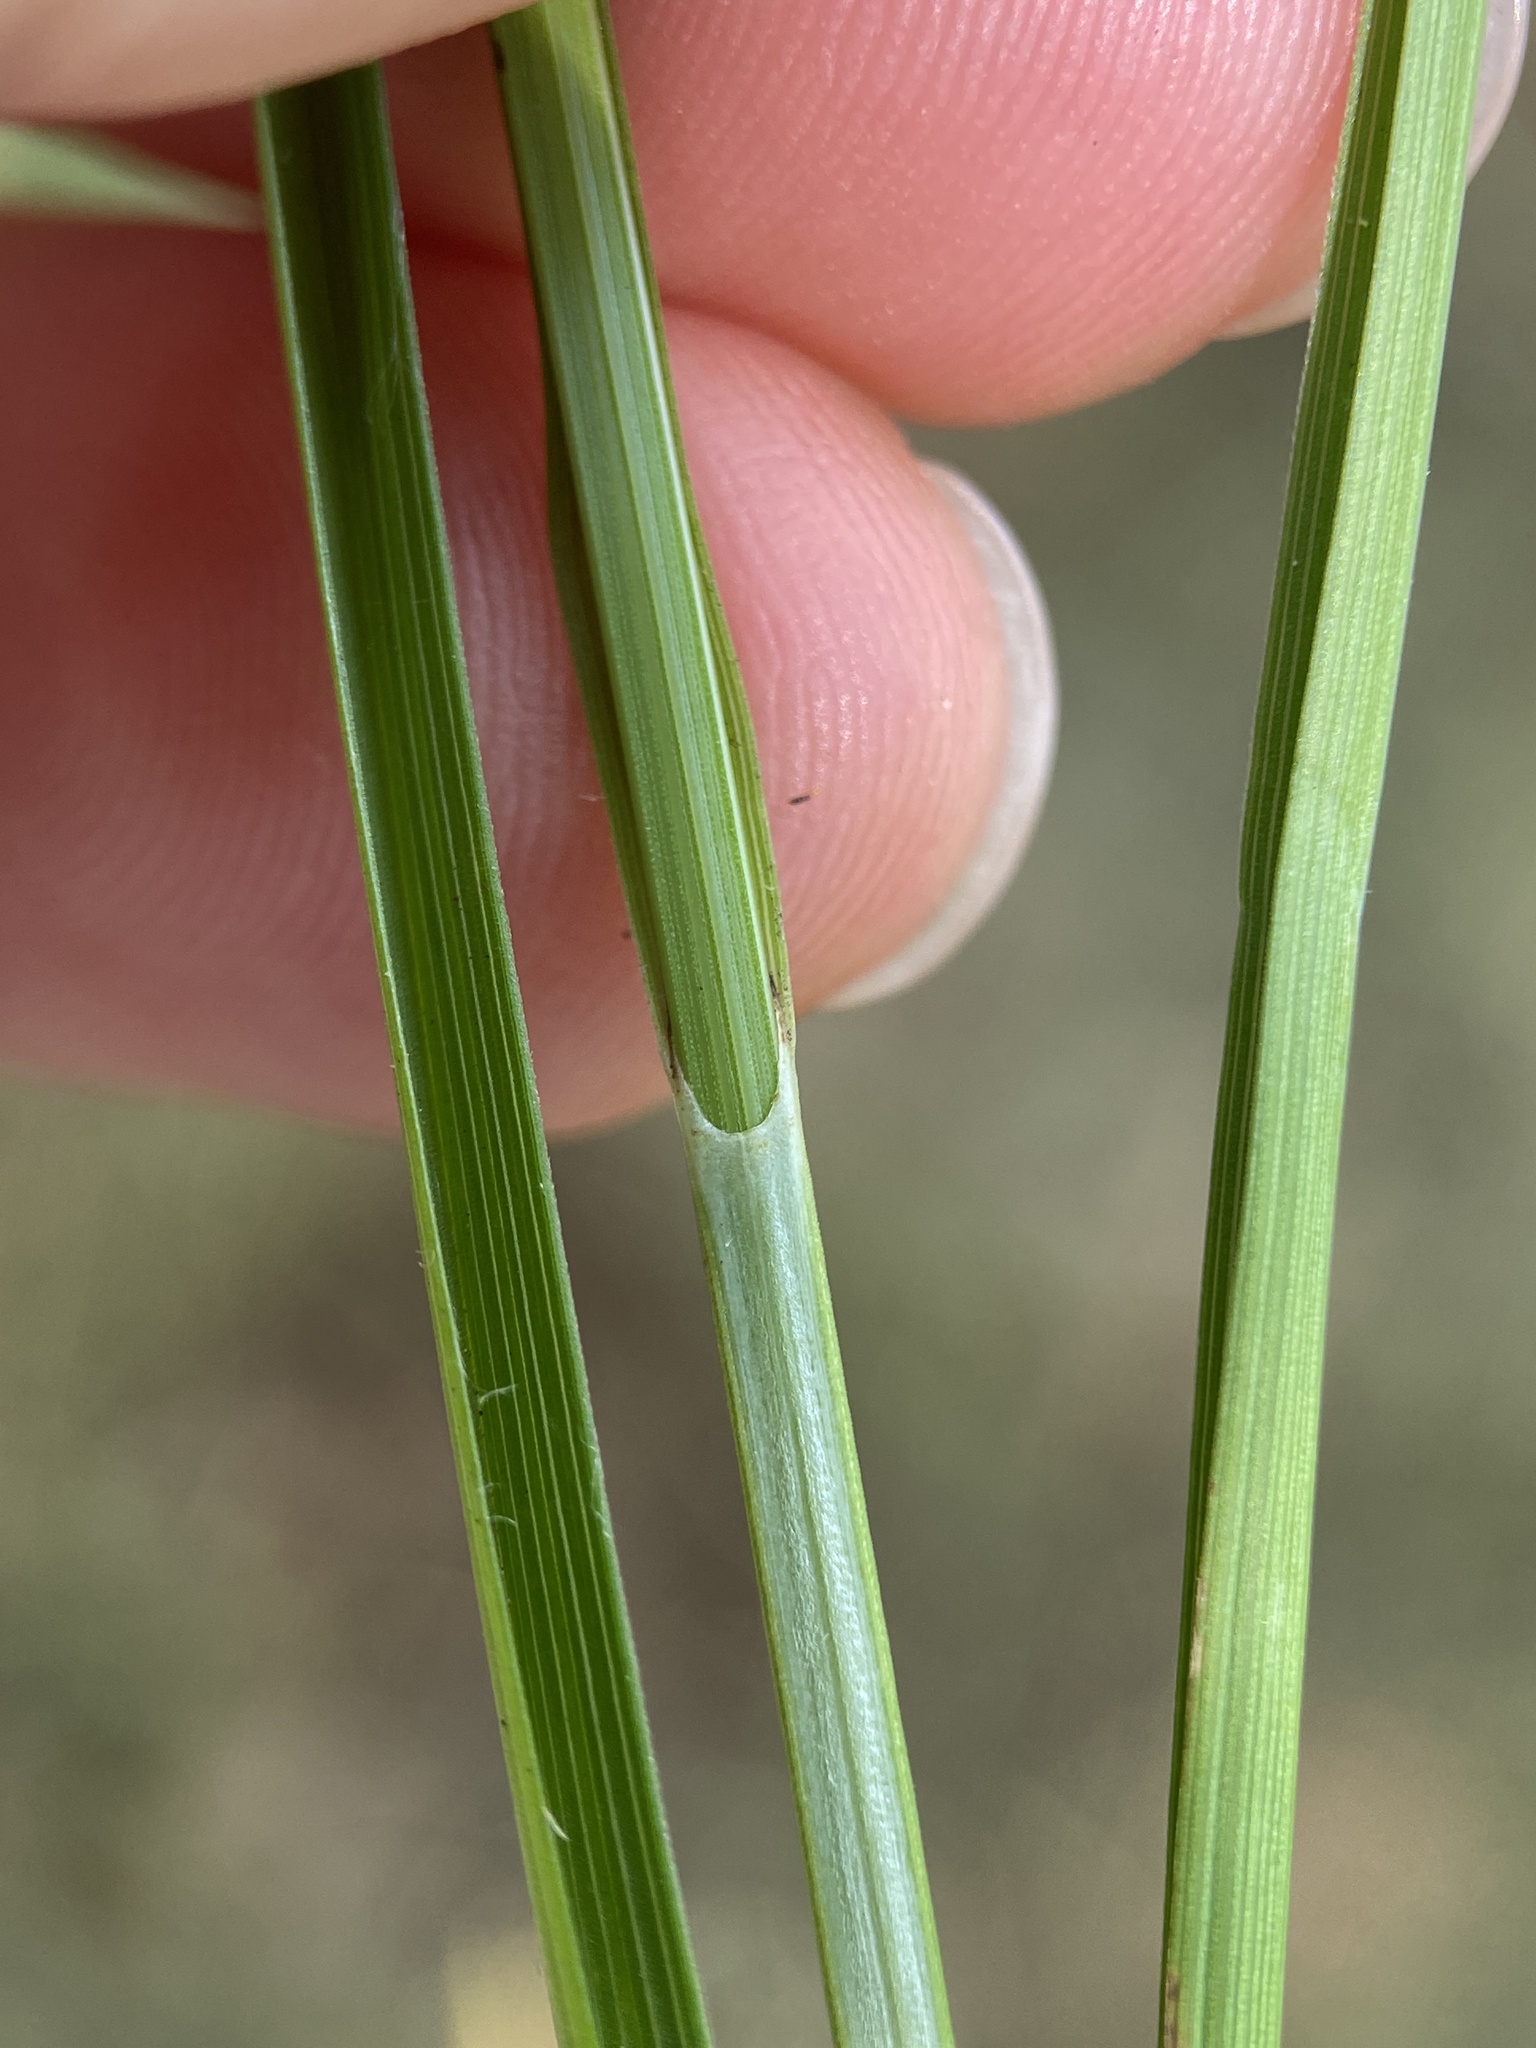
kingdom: Plantae
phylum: Tracheophyta
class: Liliopsida
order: Poales
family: Cyperaceae
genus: Carex
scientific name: Carex muehlenbergii
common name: Muhlenberg's bracted sedge
